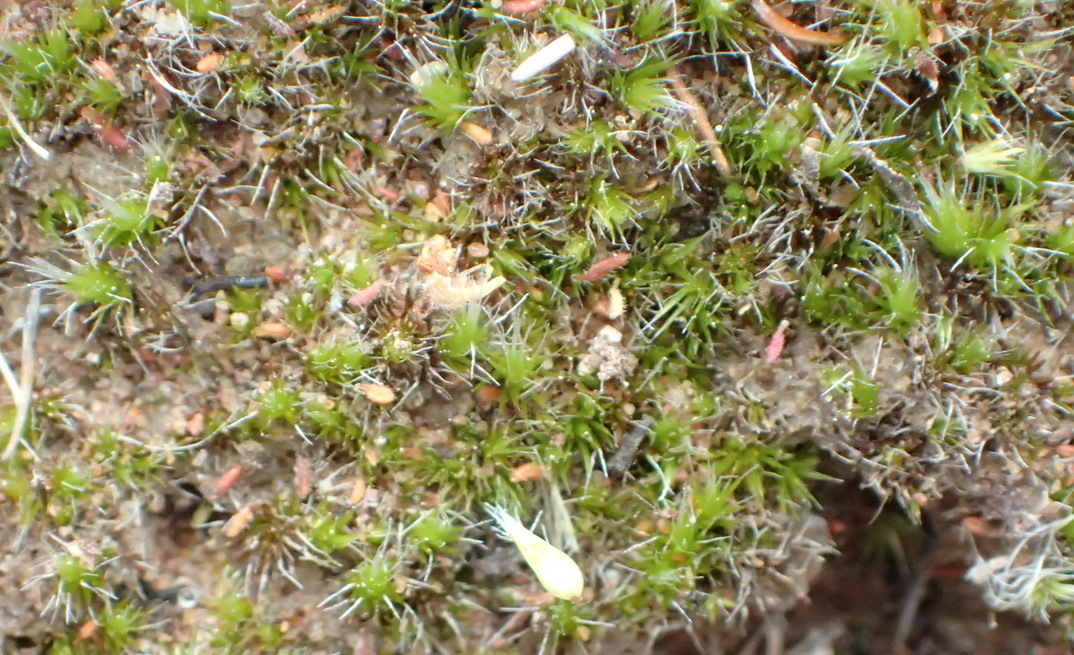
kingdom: Plantae
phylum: Bryophyta
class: Bryopsida
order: Dicranales
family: Leucobryaceae
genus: Campylopus
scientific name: Campylopus introflexus
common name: Heath star moss
